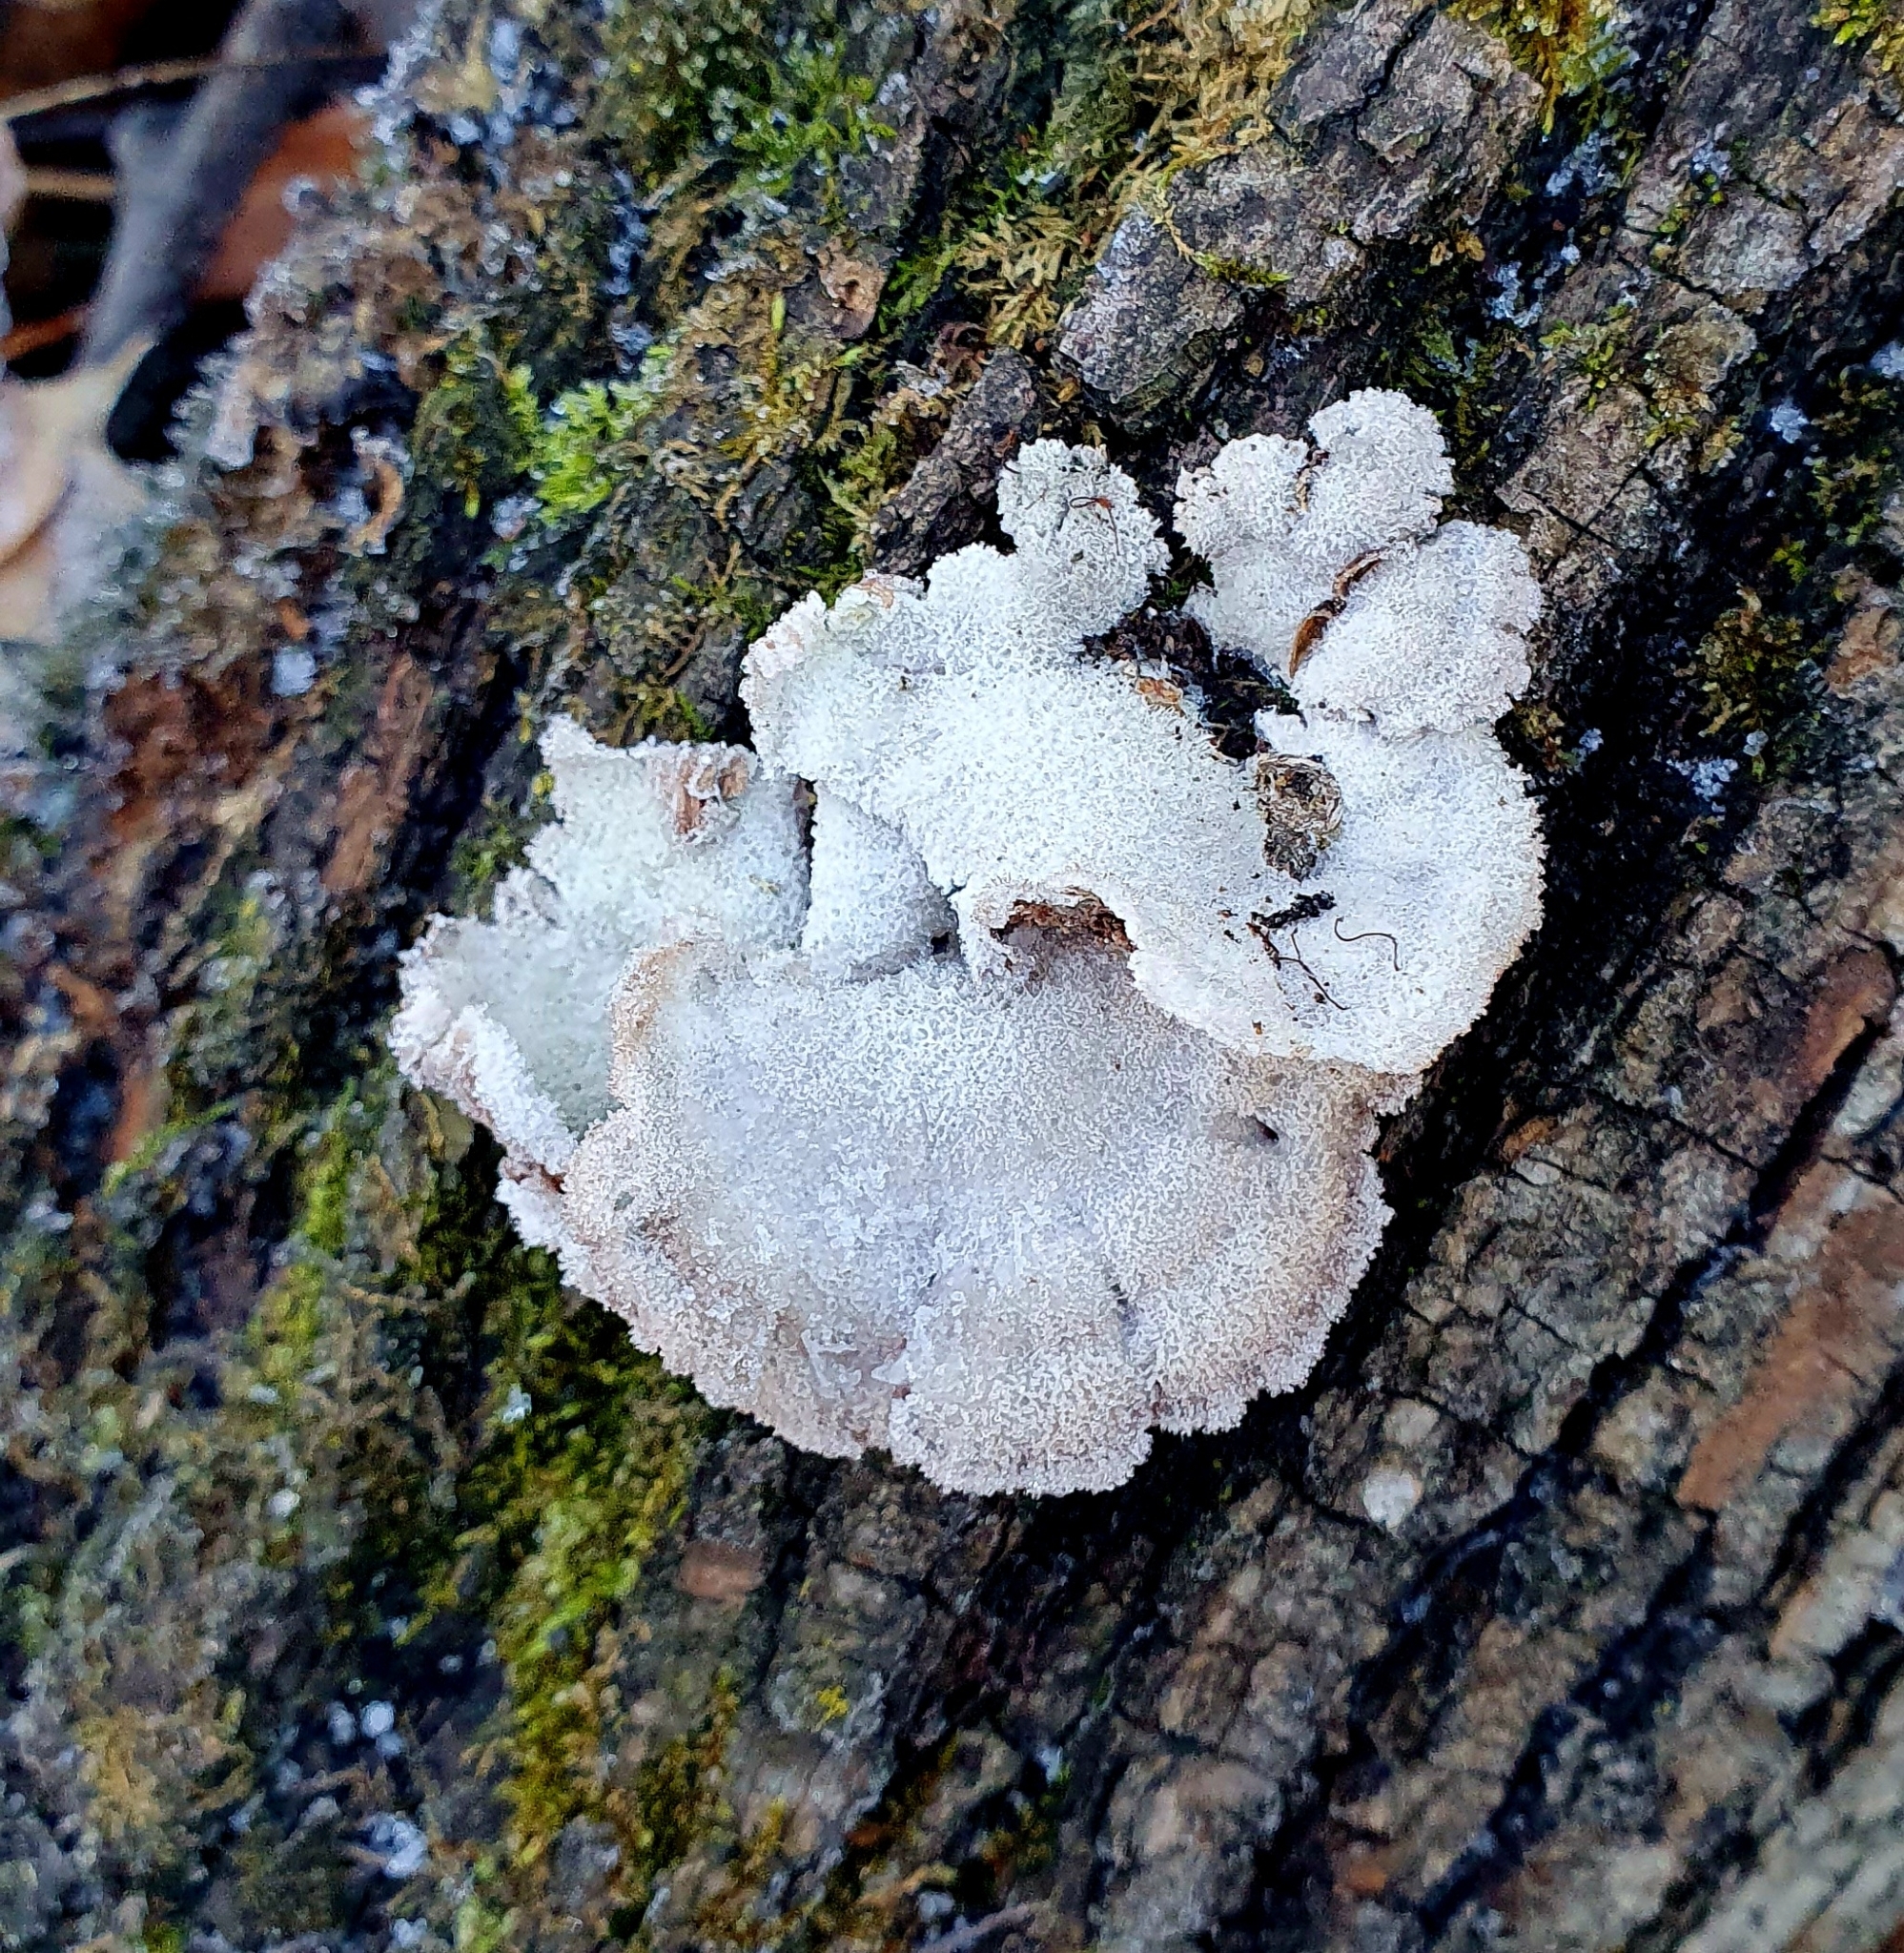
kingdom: Fungi
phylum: Basidiomycota
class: Agaricomycetes
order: Agaricales
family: Schizophyllaceae
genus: Schizophyllum
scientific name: Schizophyllum commune
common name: Common porecrust
